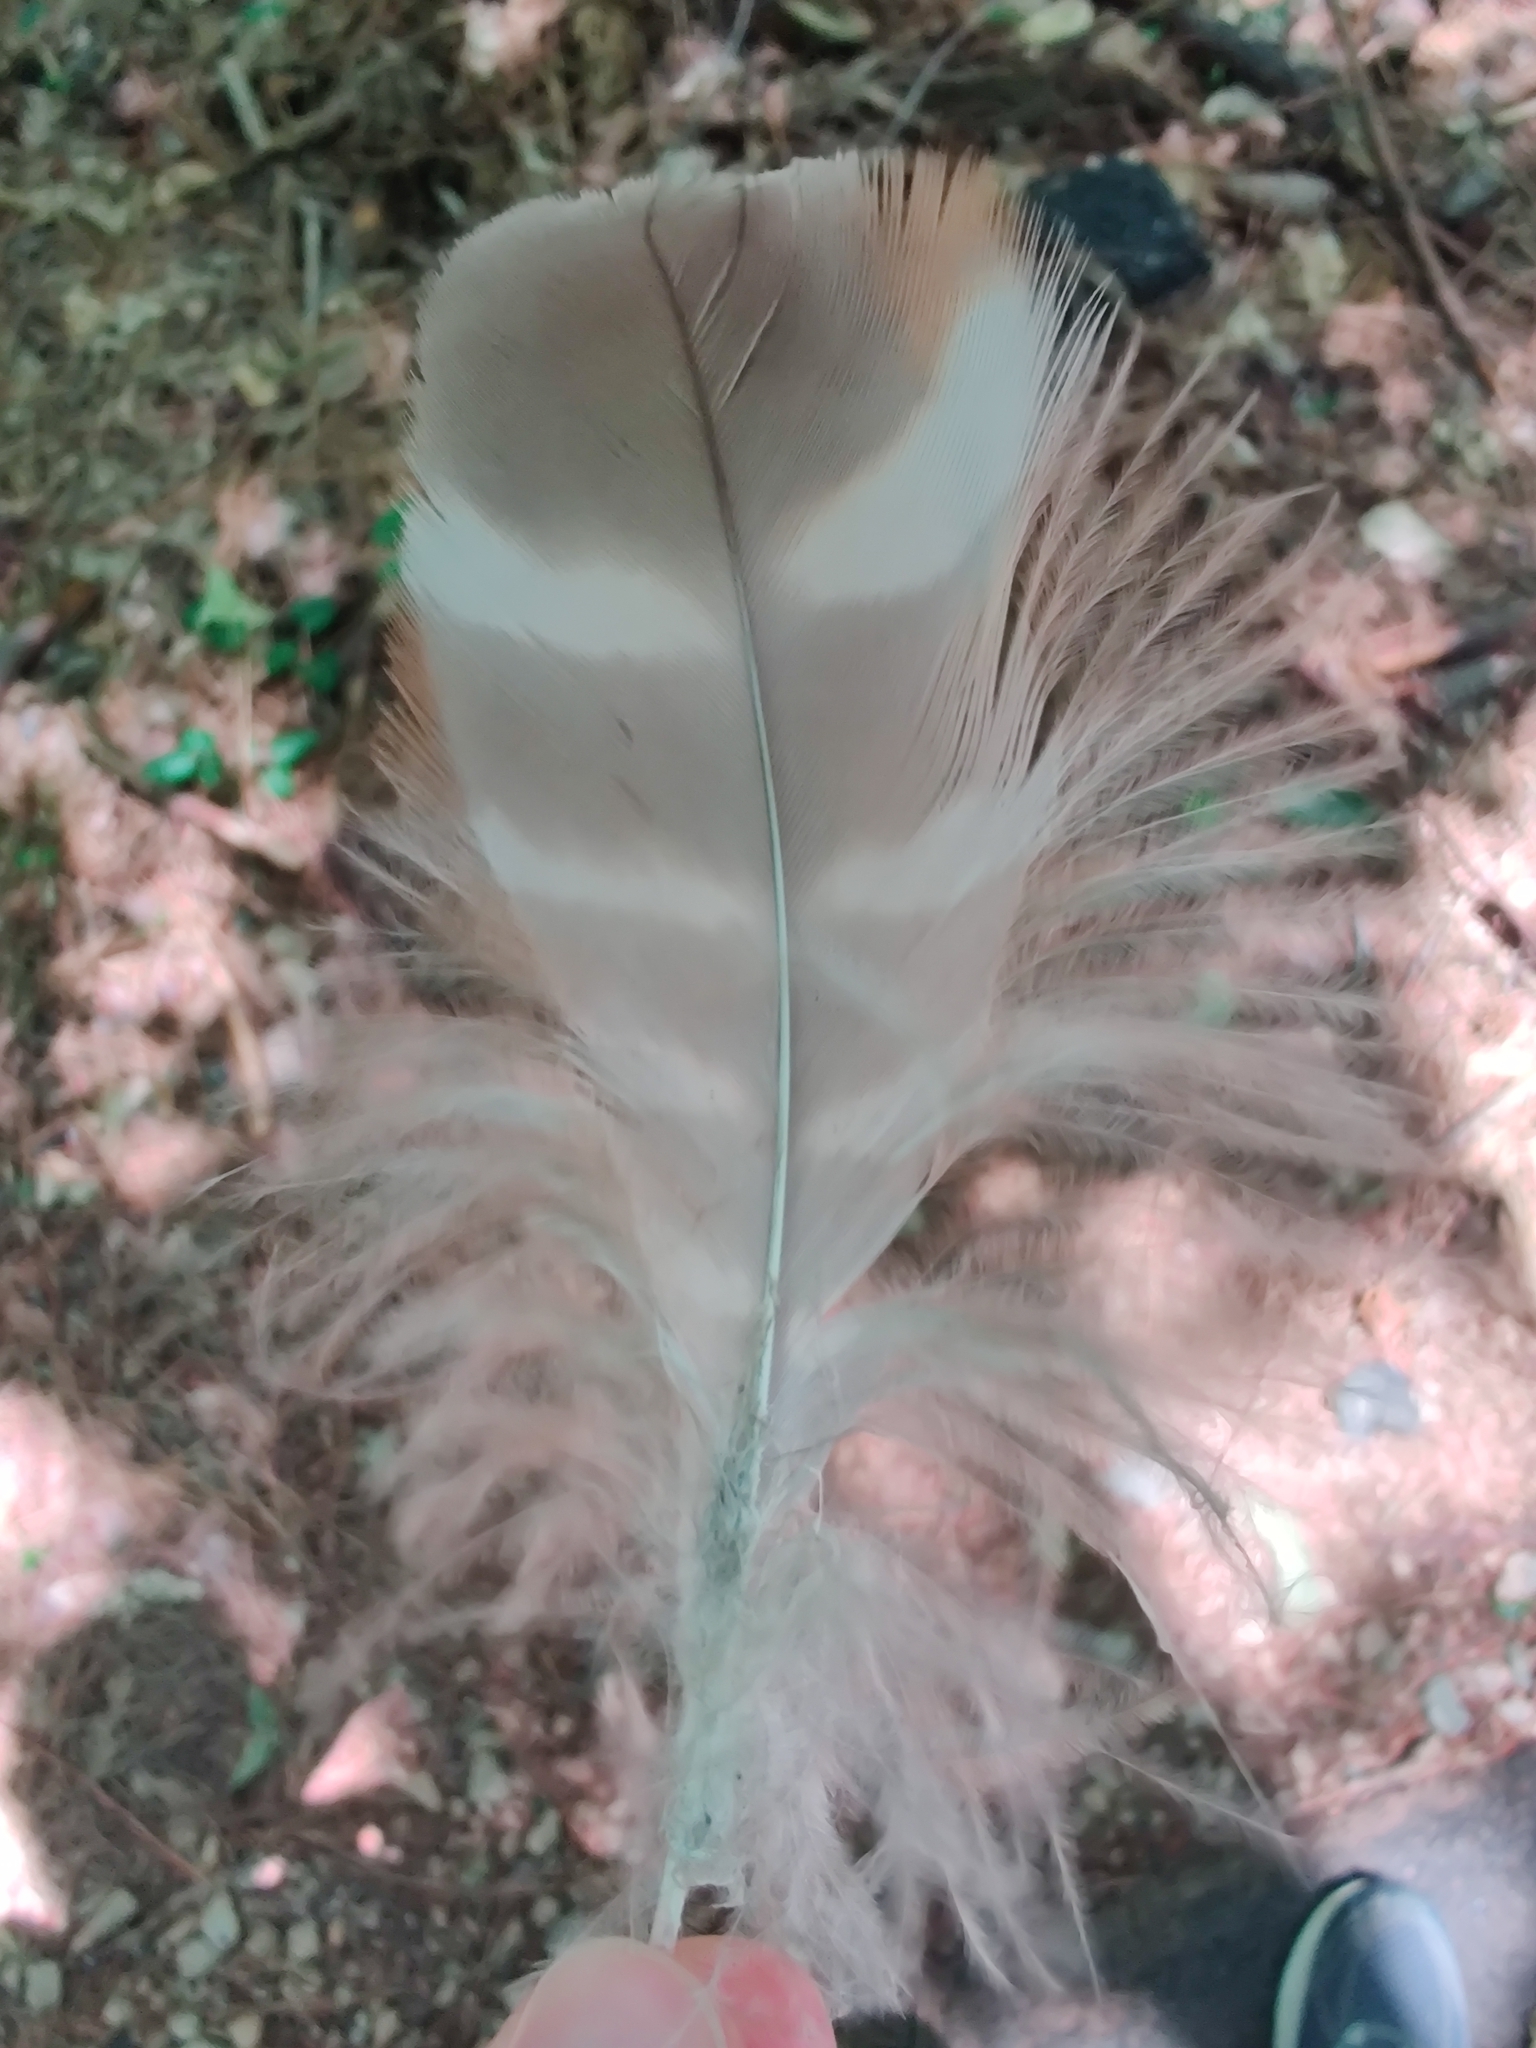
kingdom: Animalia
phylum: Chordata
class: Aves
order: Accipitriformes
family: Accipitridae
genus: Buteo
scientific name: Buteo lineatus
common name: Red-shouldered hawk
